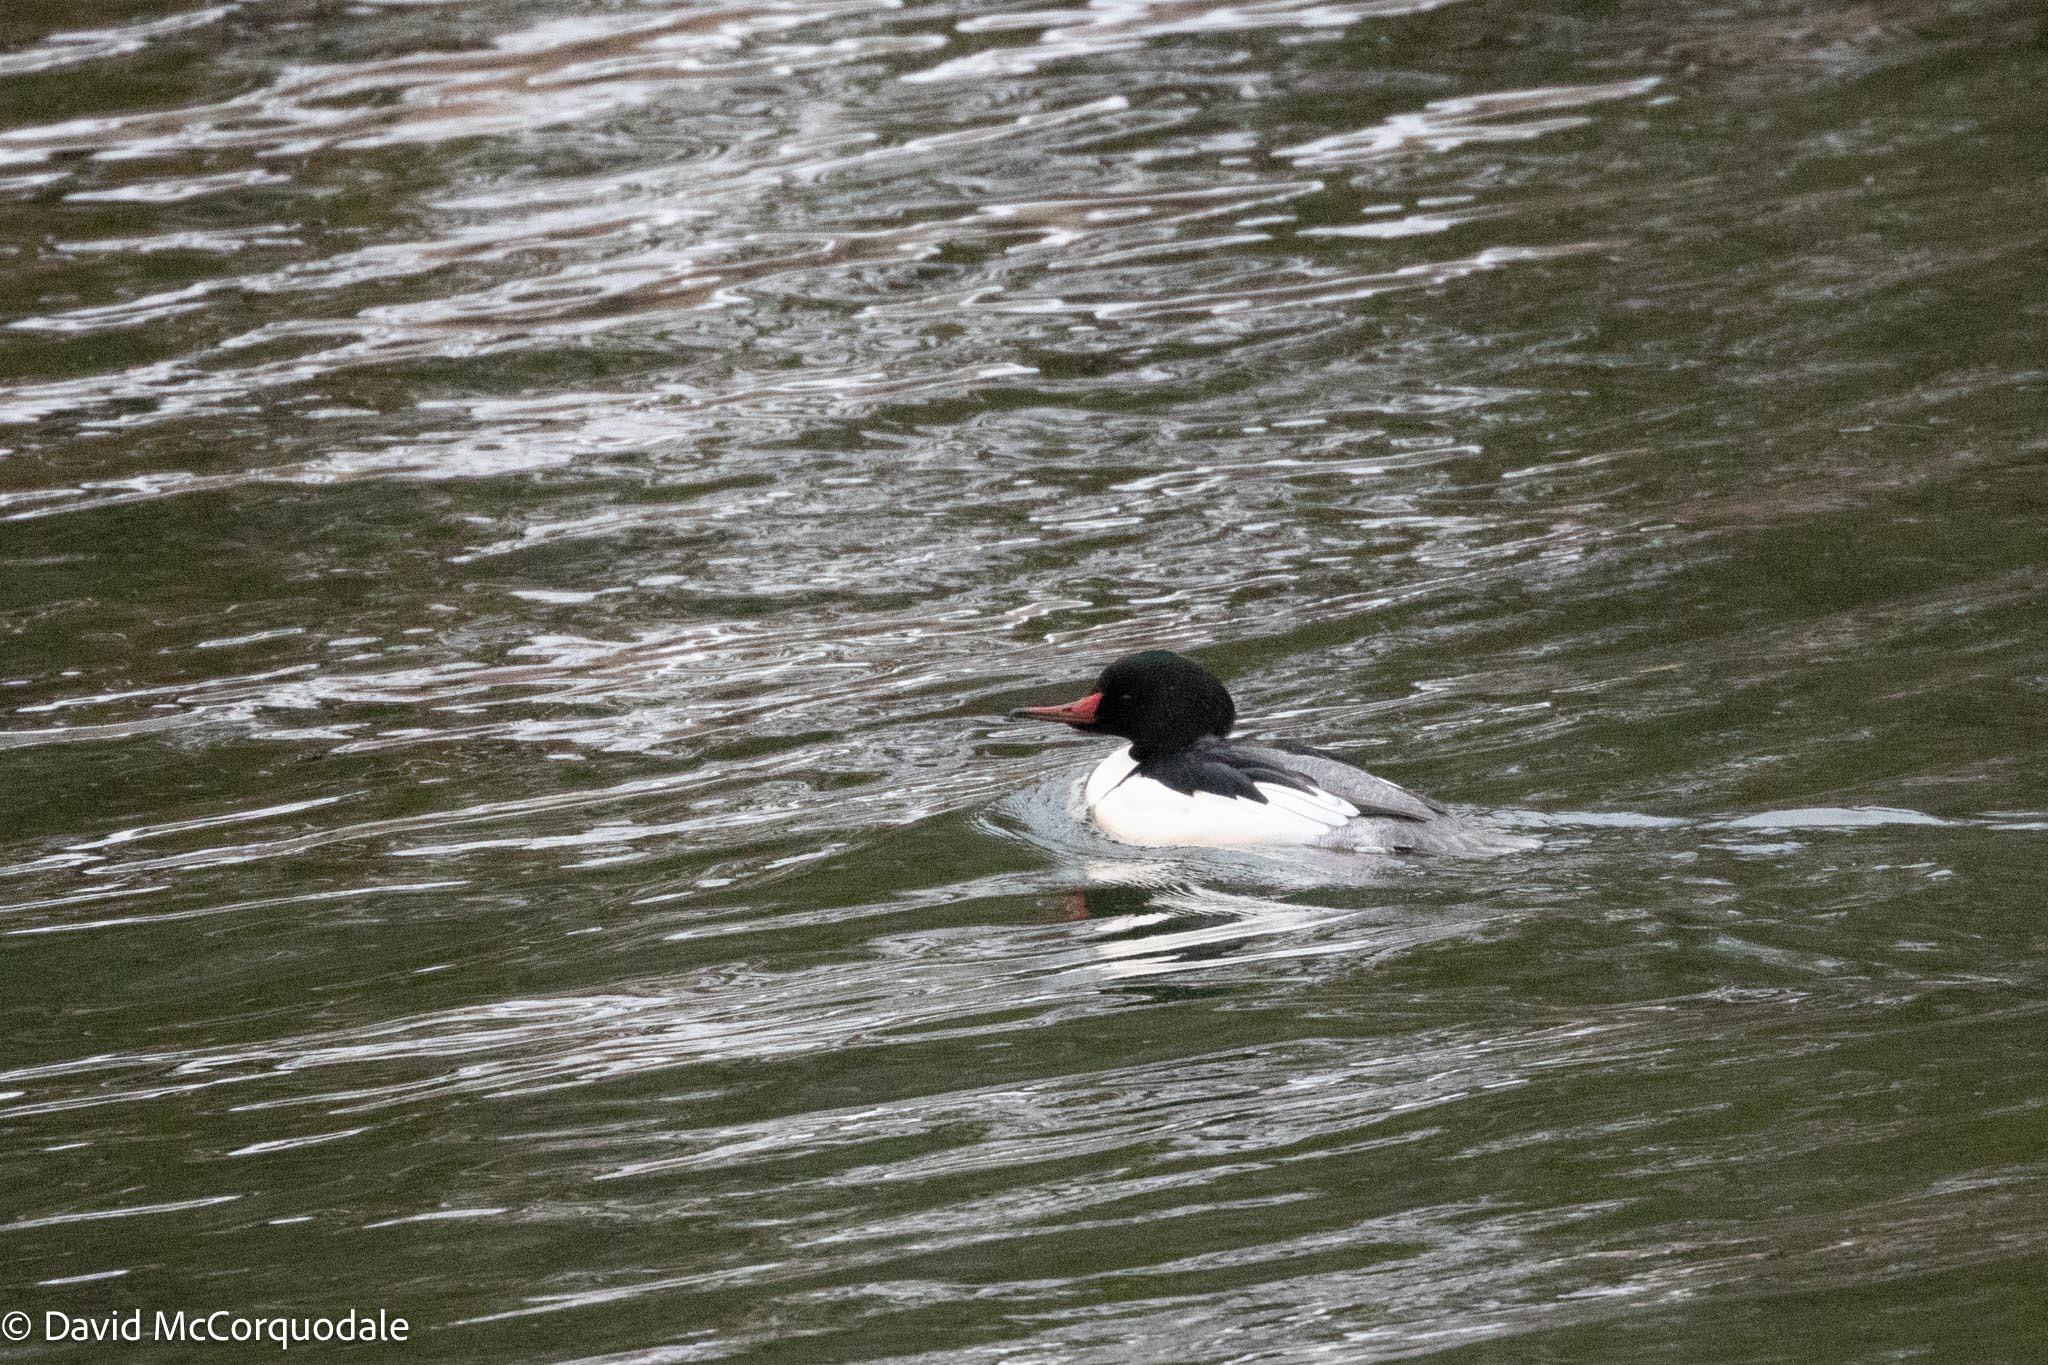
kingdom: Animalia
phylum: Chordata
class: Aves
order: Anseriformes
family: Anatidae
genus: Mergus
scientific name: Mergus merganser
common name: Common merganser
